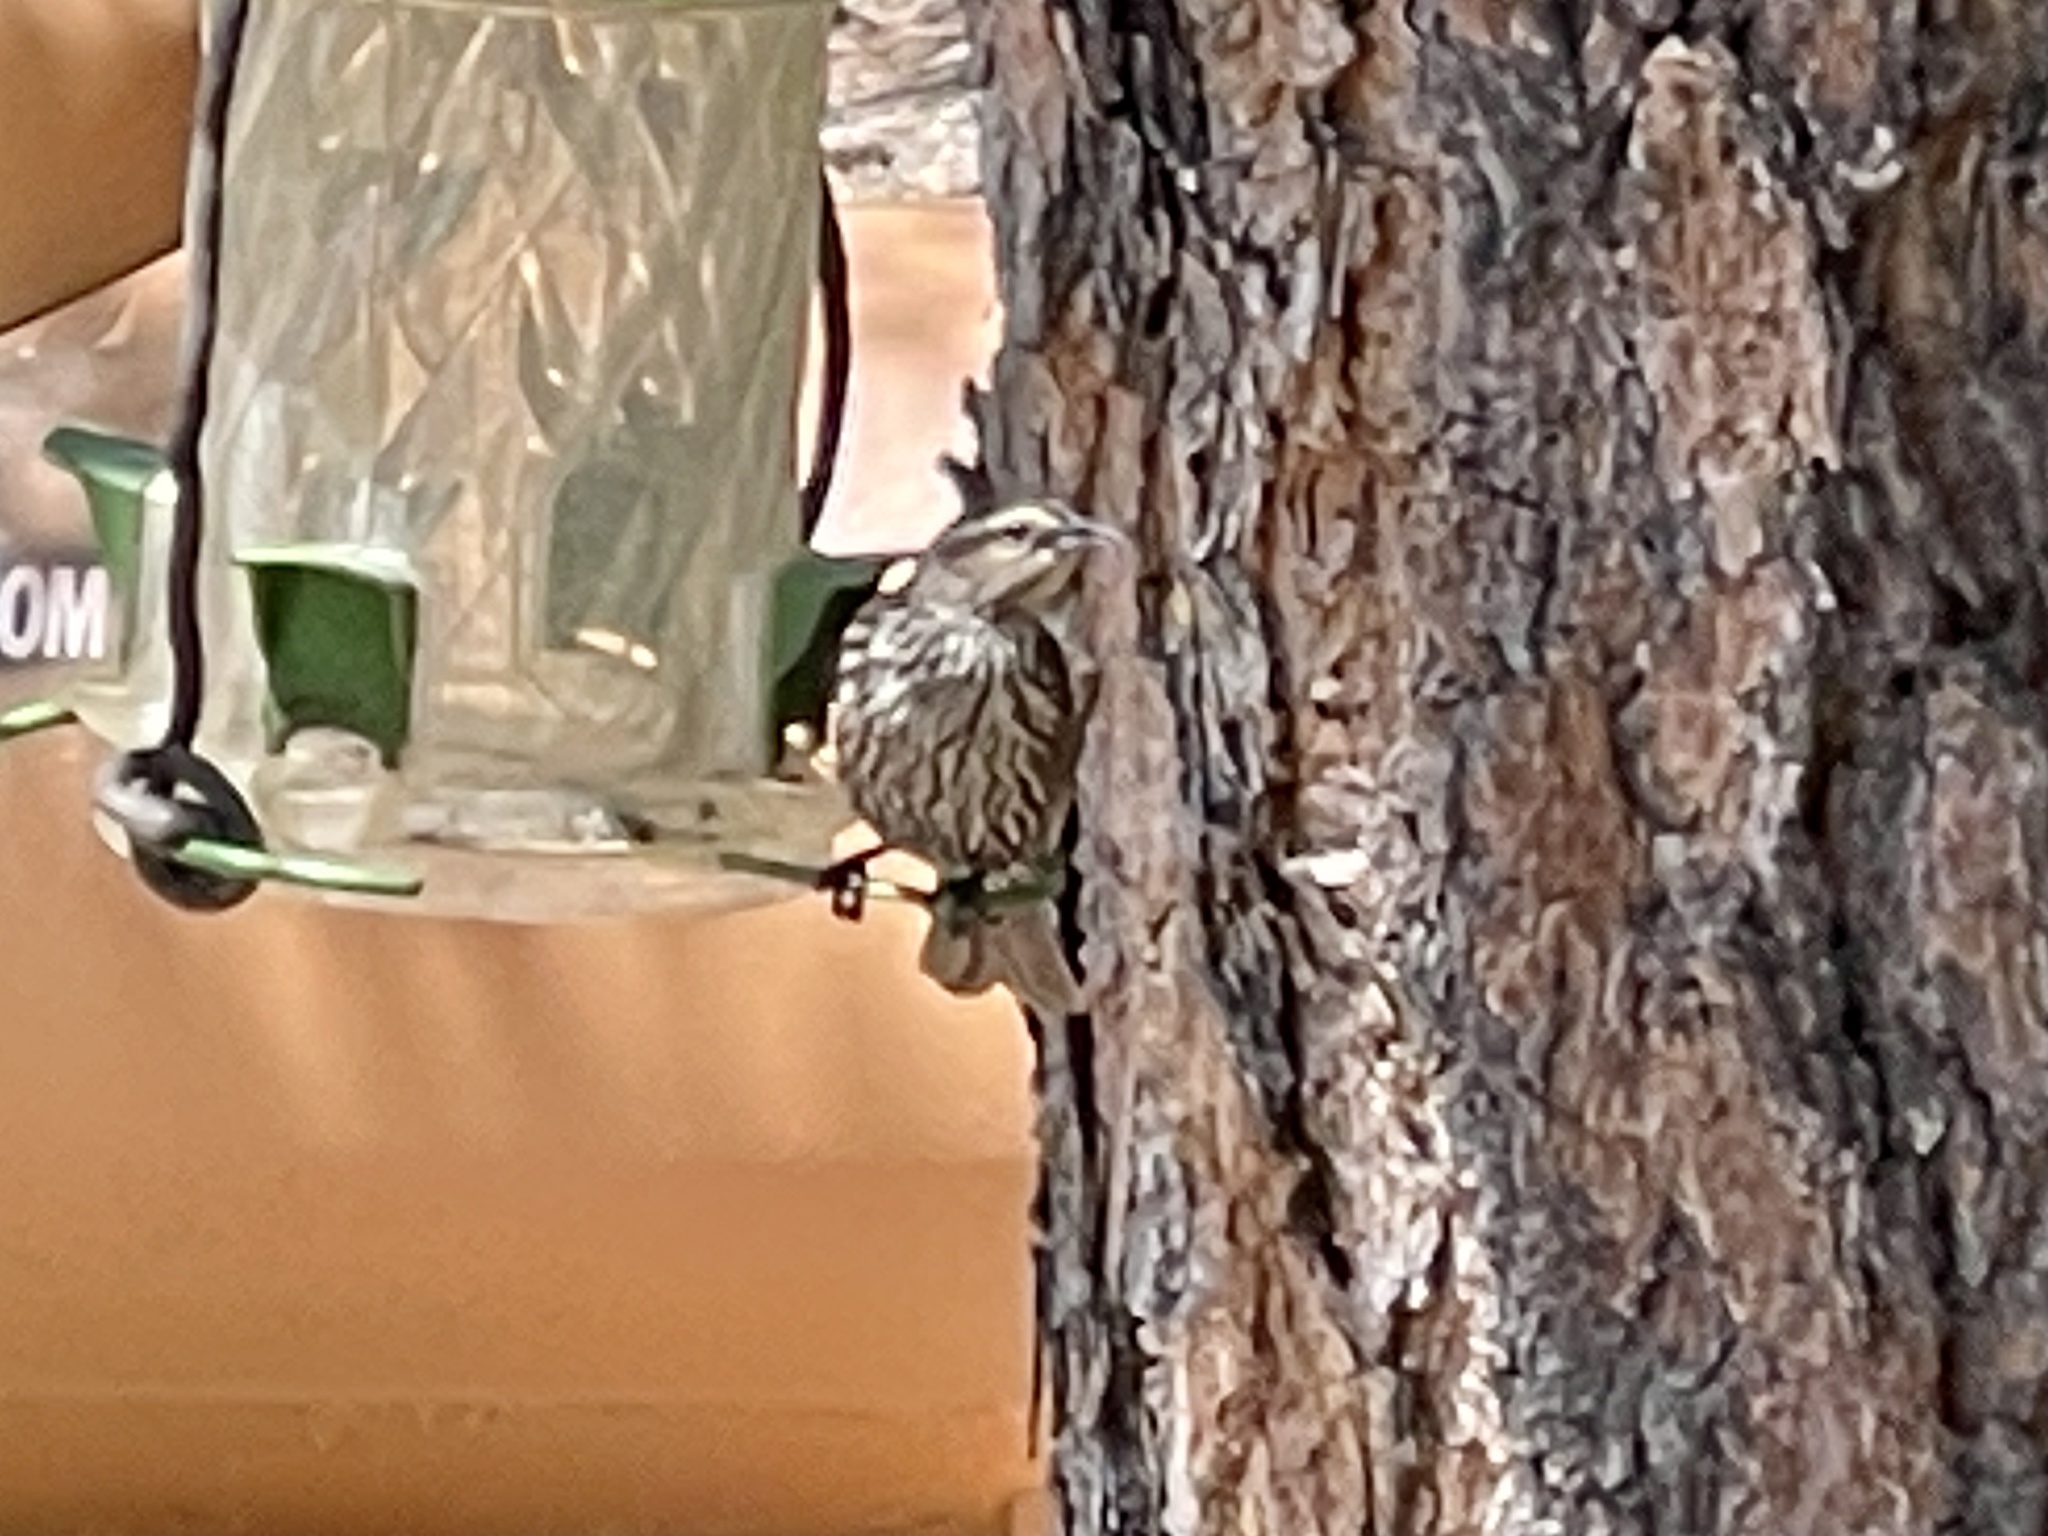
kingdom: Animalia
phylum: Chordata
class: Aves
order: Passeriformes
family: Icteridae
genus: Agelaius
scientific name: Agelaius phoeniceus
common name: Red-winged blackbird
